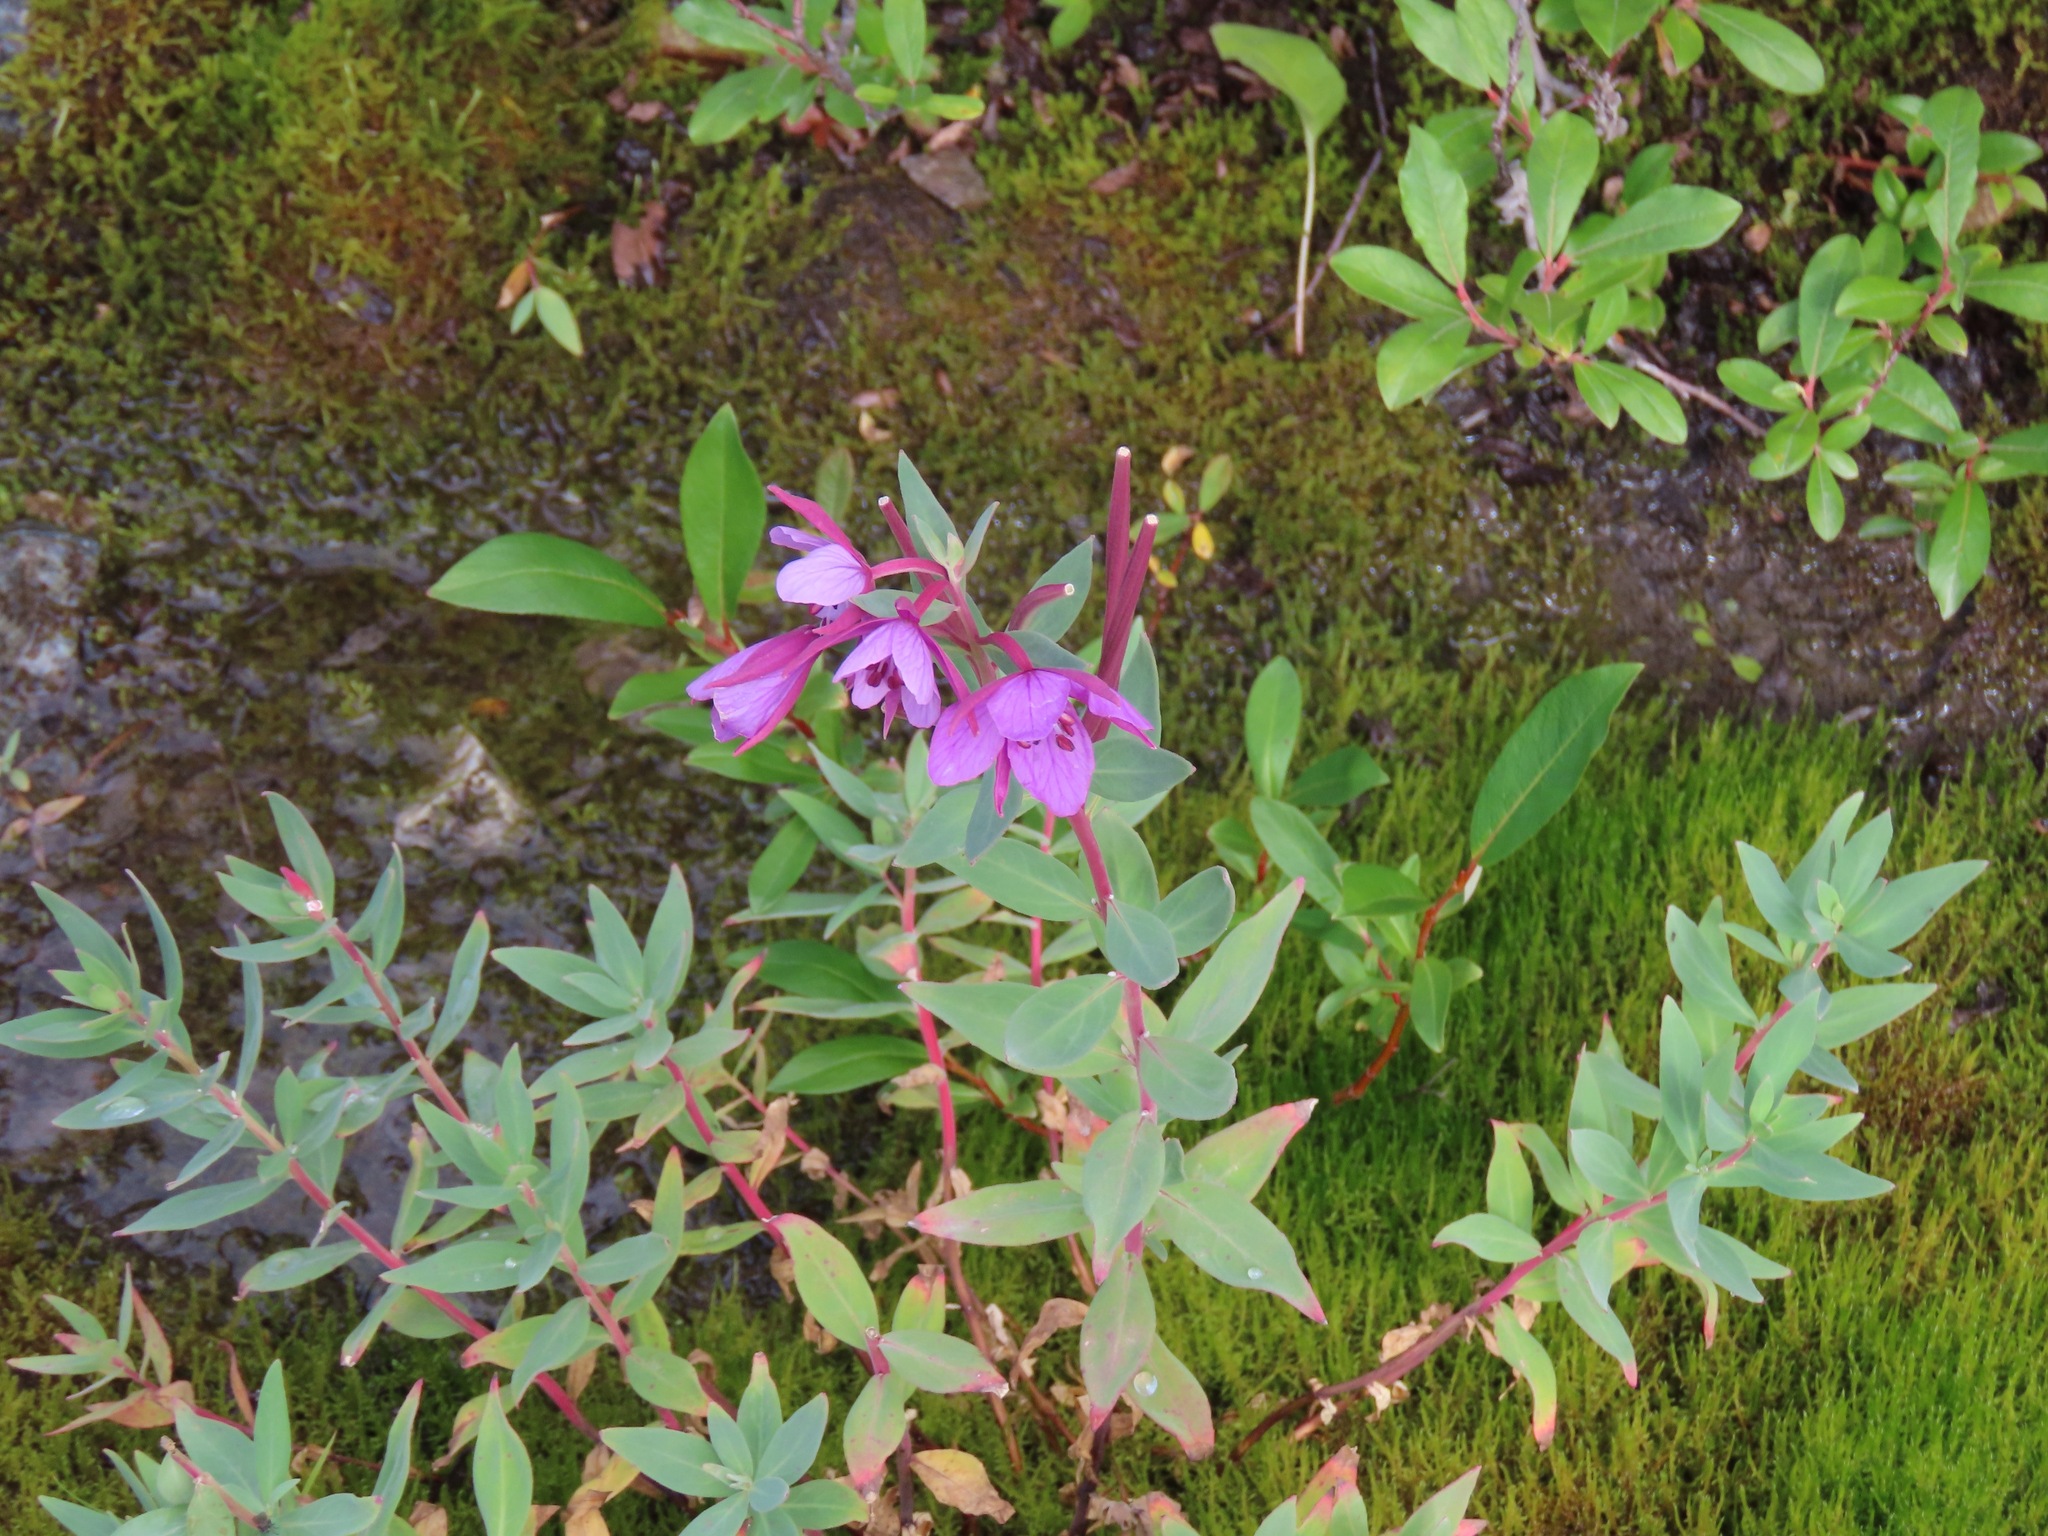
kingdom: Plantae
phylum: Tracheophyta
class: Magnoliopsida
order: Myrtales
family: Onagraceae
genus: Chamaenerion
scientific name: Chamaenerion latifolium
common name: Dwarf fireweed
